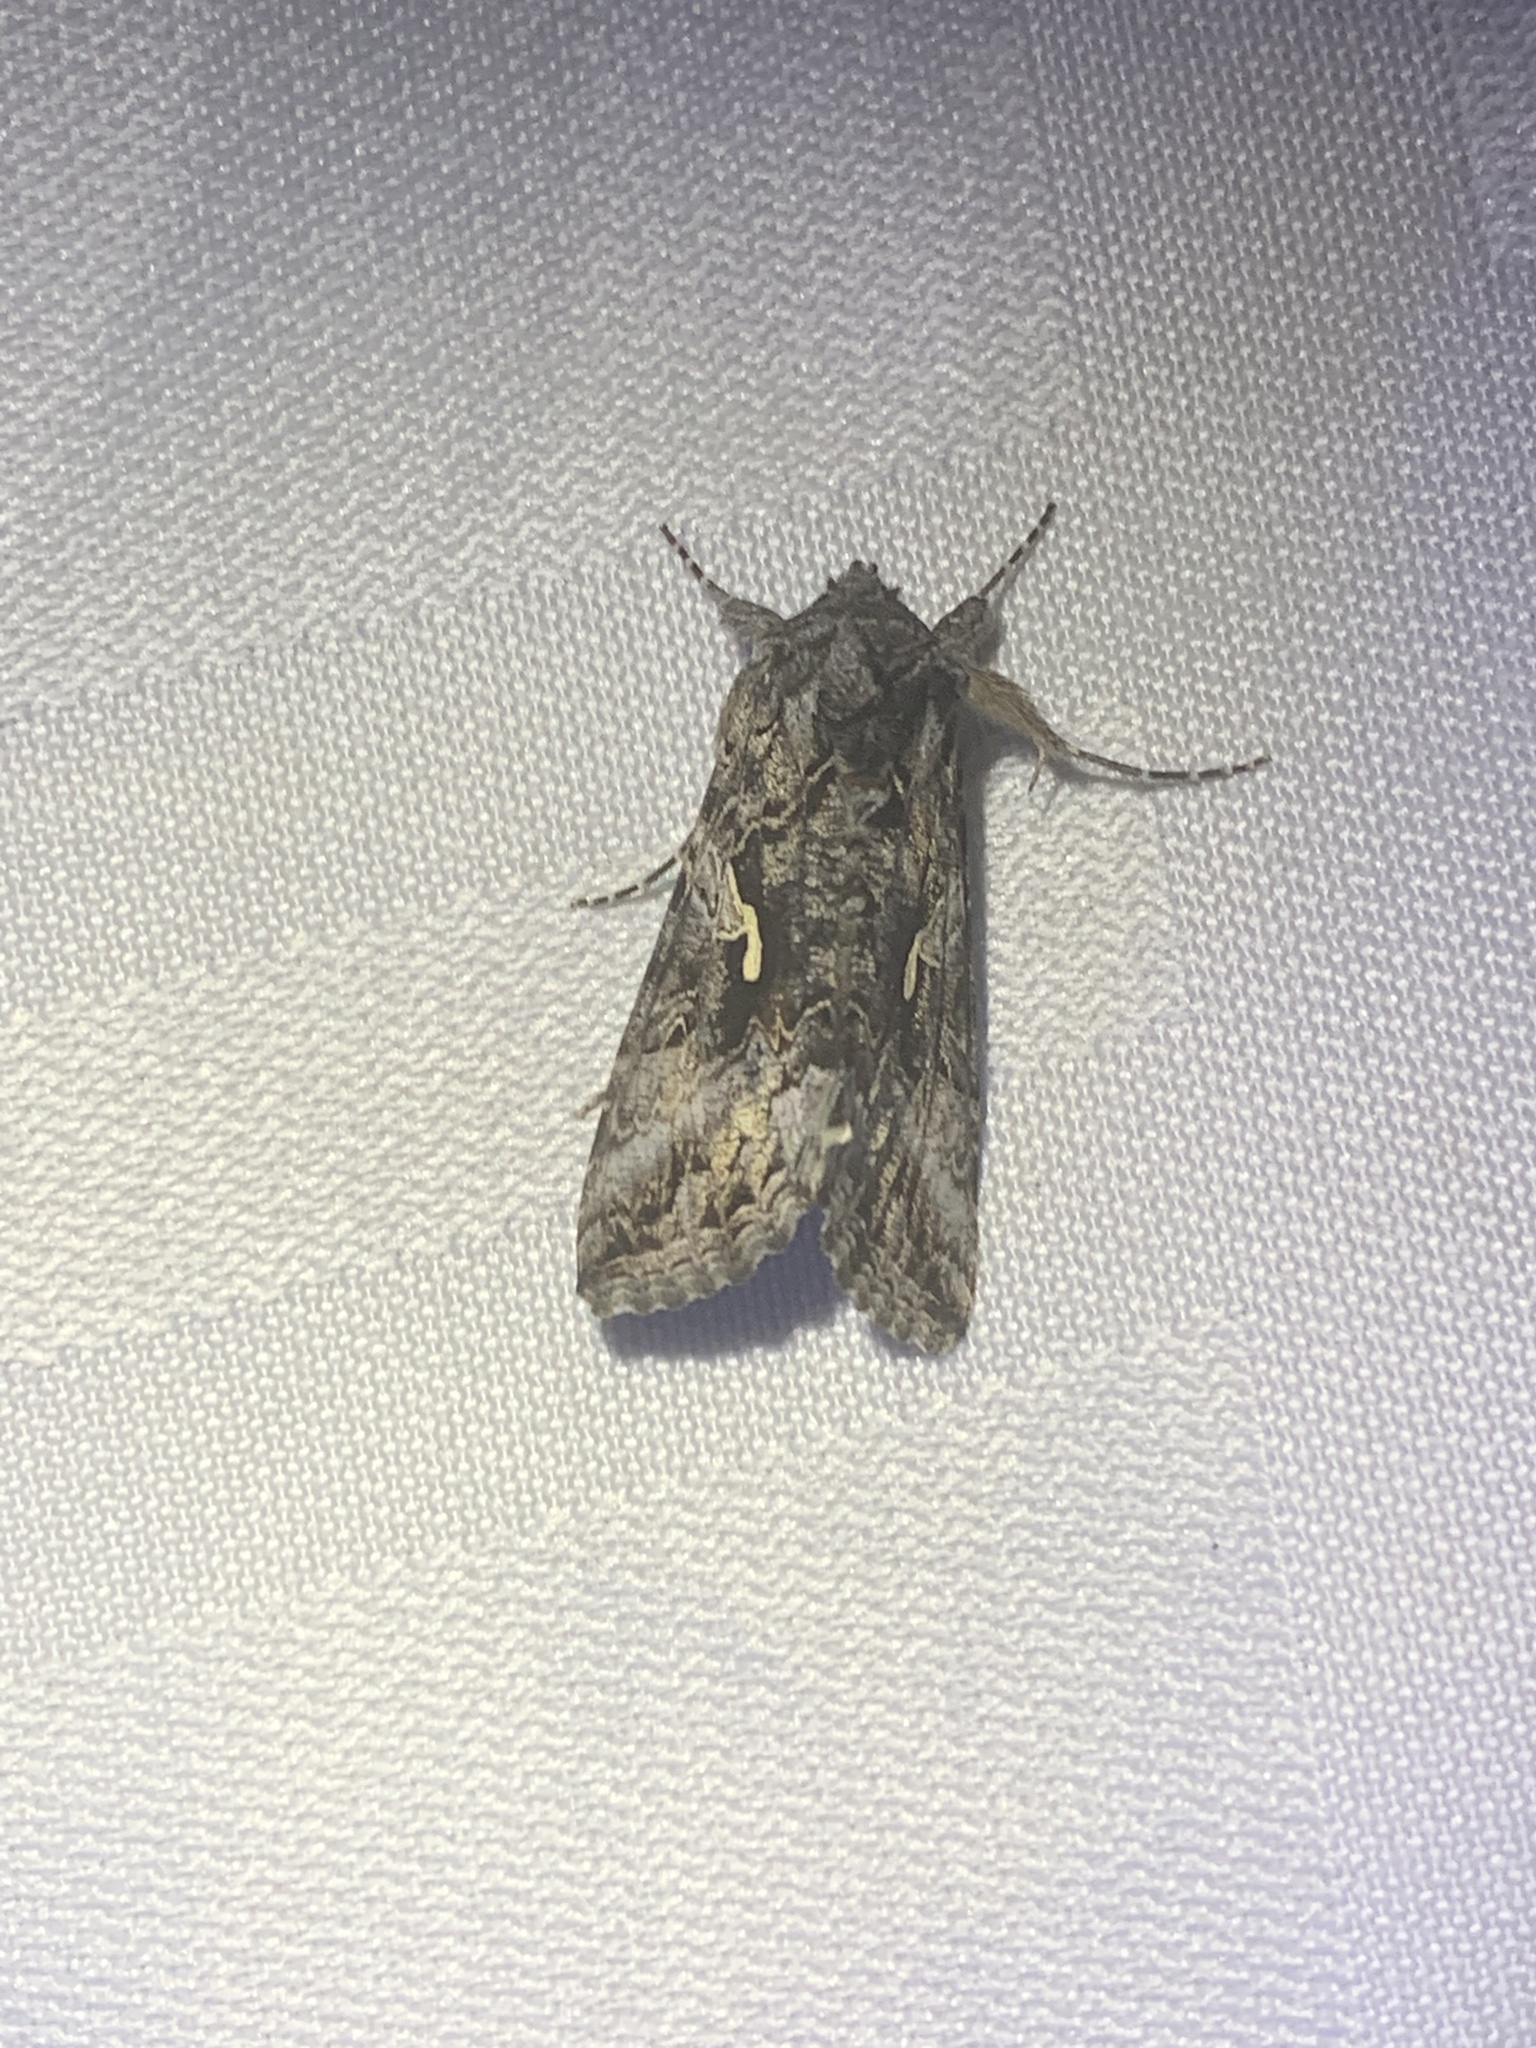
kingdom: Animalia
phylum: Arthropoda
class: Insecta
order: Lepidoptera
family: Noctuidae
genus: Autographa
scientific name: Autographa californica
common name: Alfalfa looper
